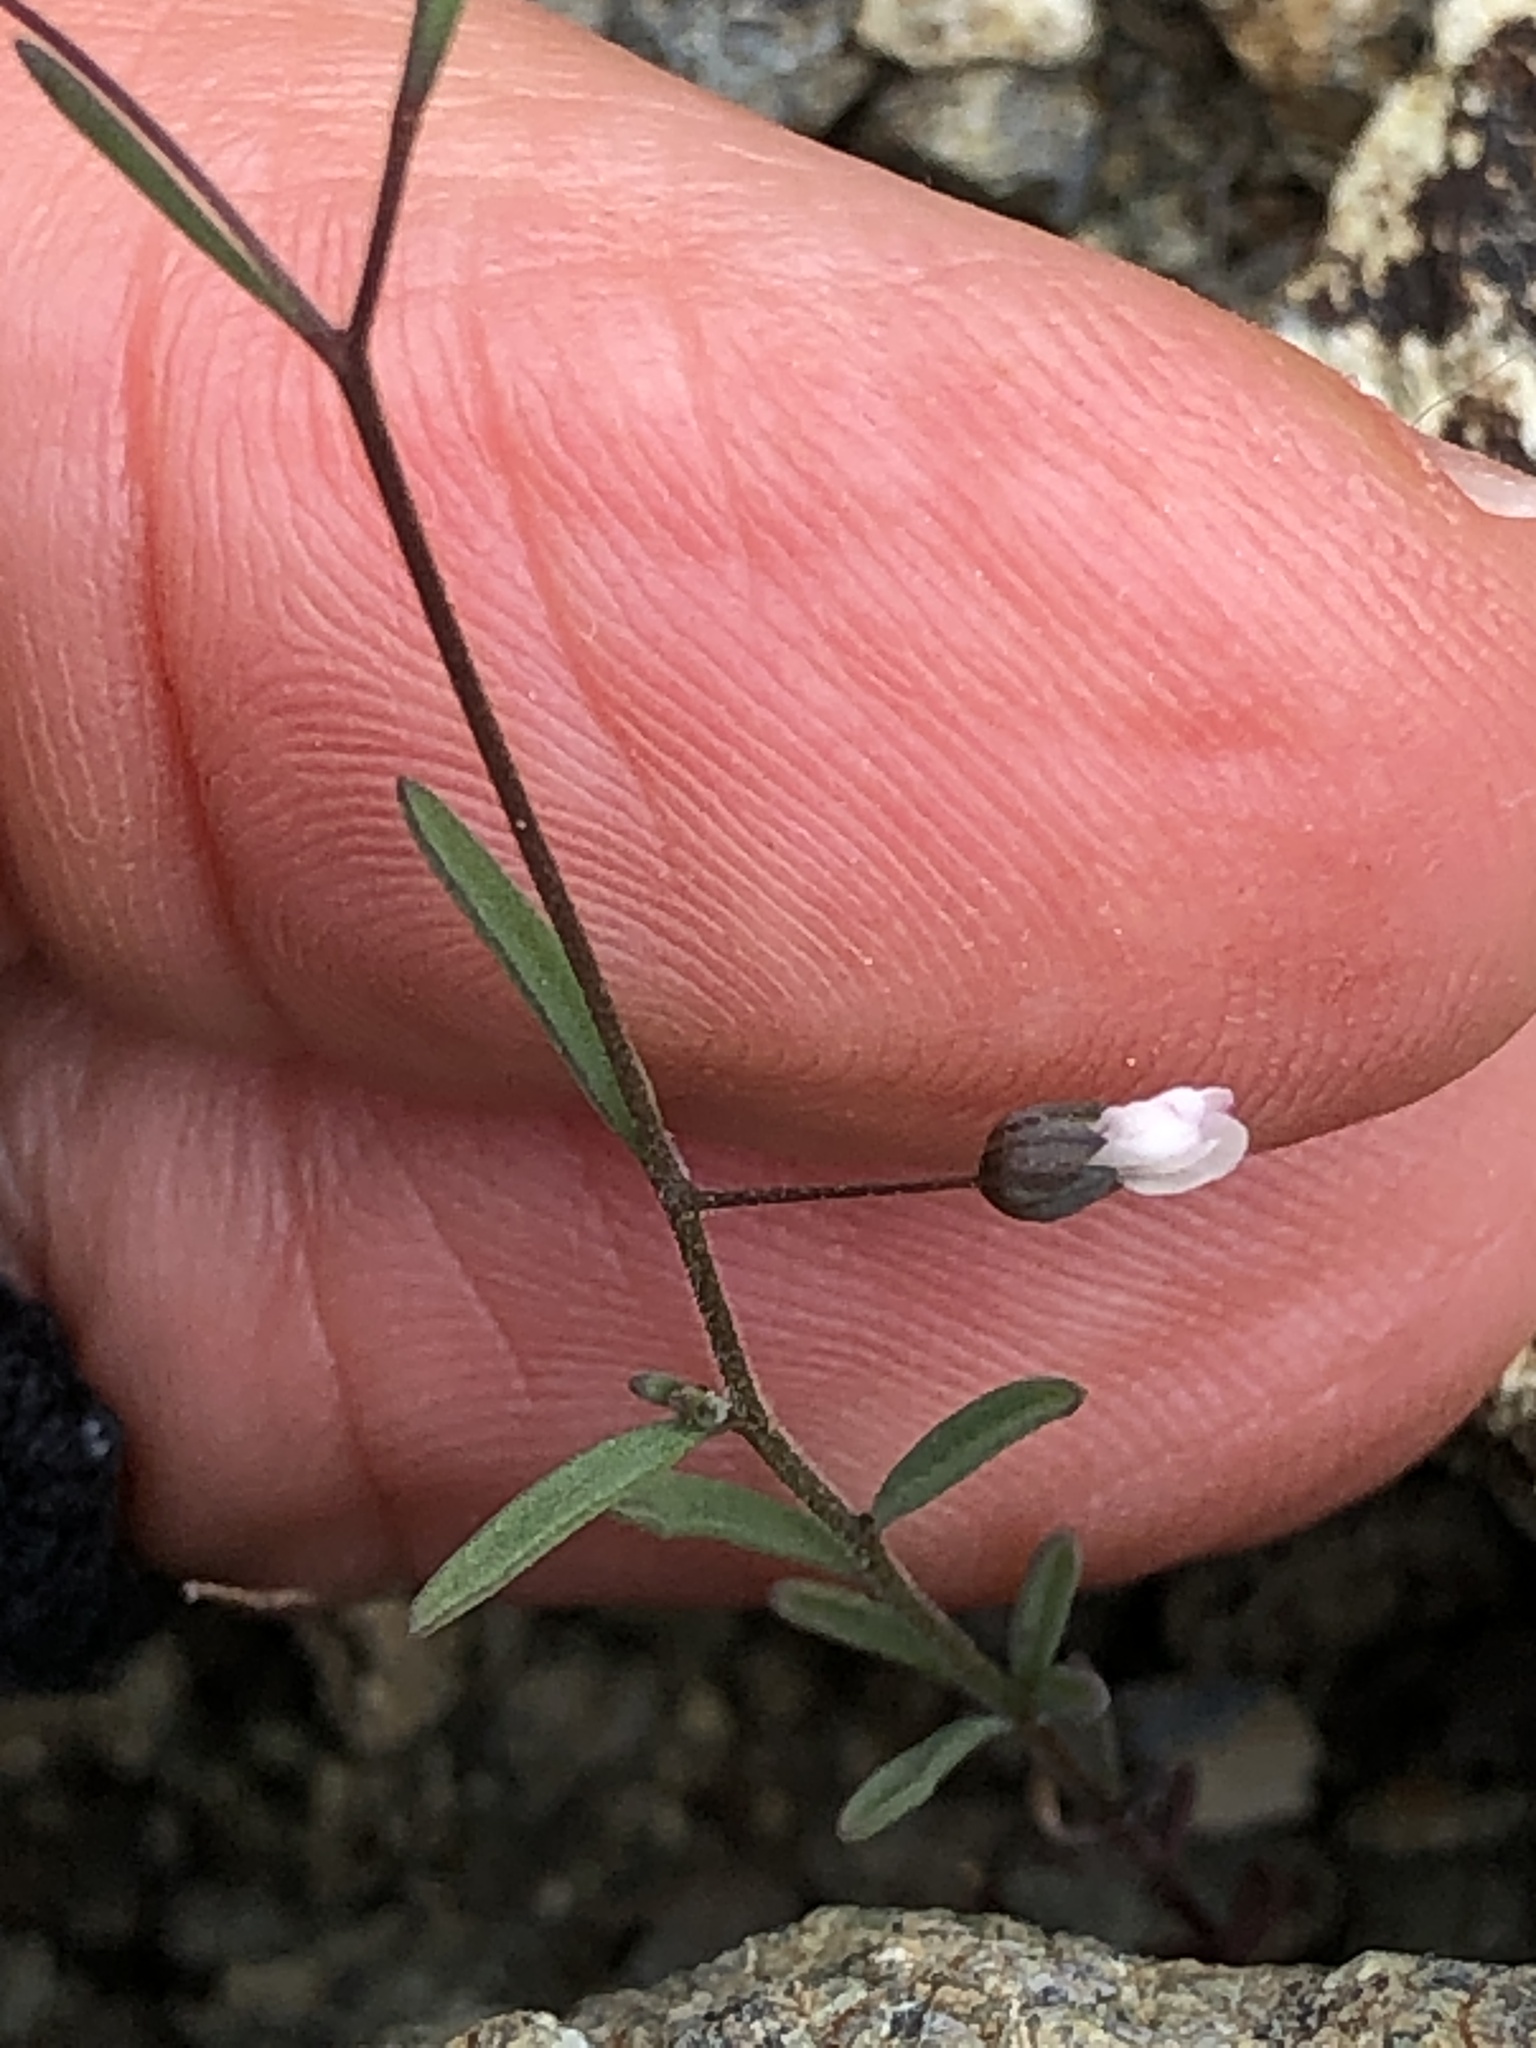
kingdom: Plantae
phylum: Tracheophyta
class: Magnoliopsida
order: Malpighiales
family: Linaceae
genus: Hesperolinon
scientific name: Hesperolinon micranthum
